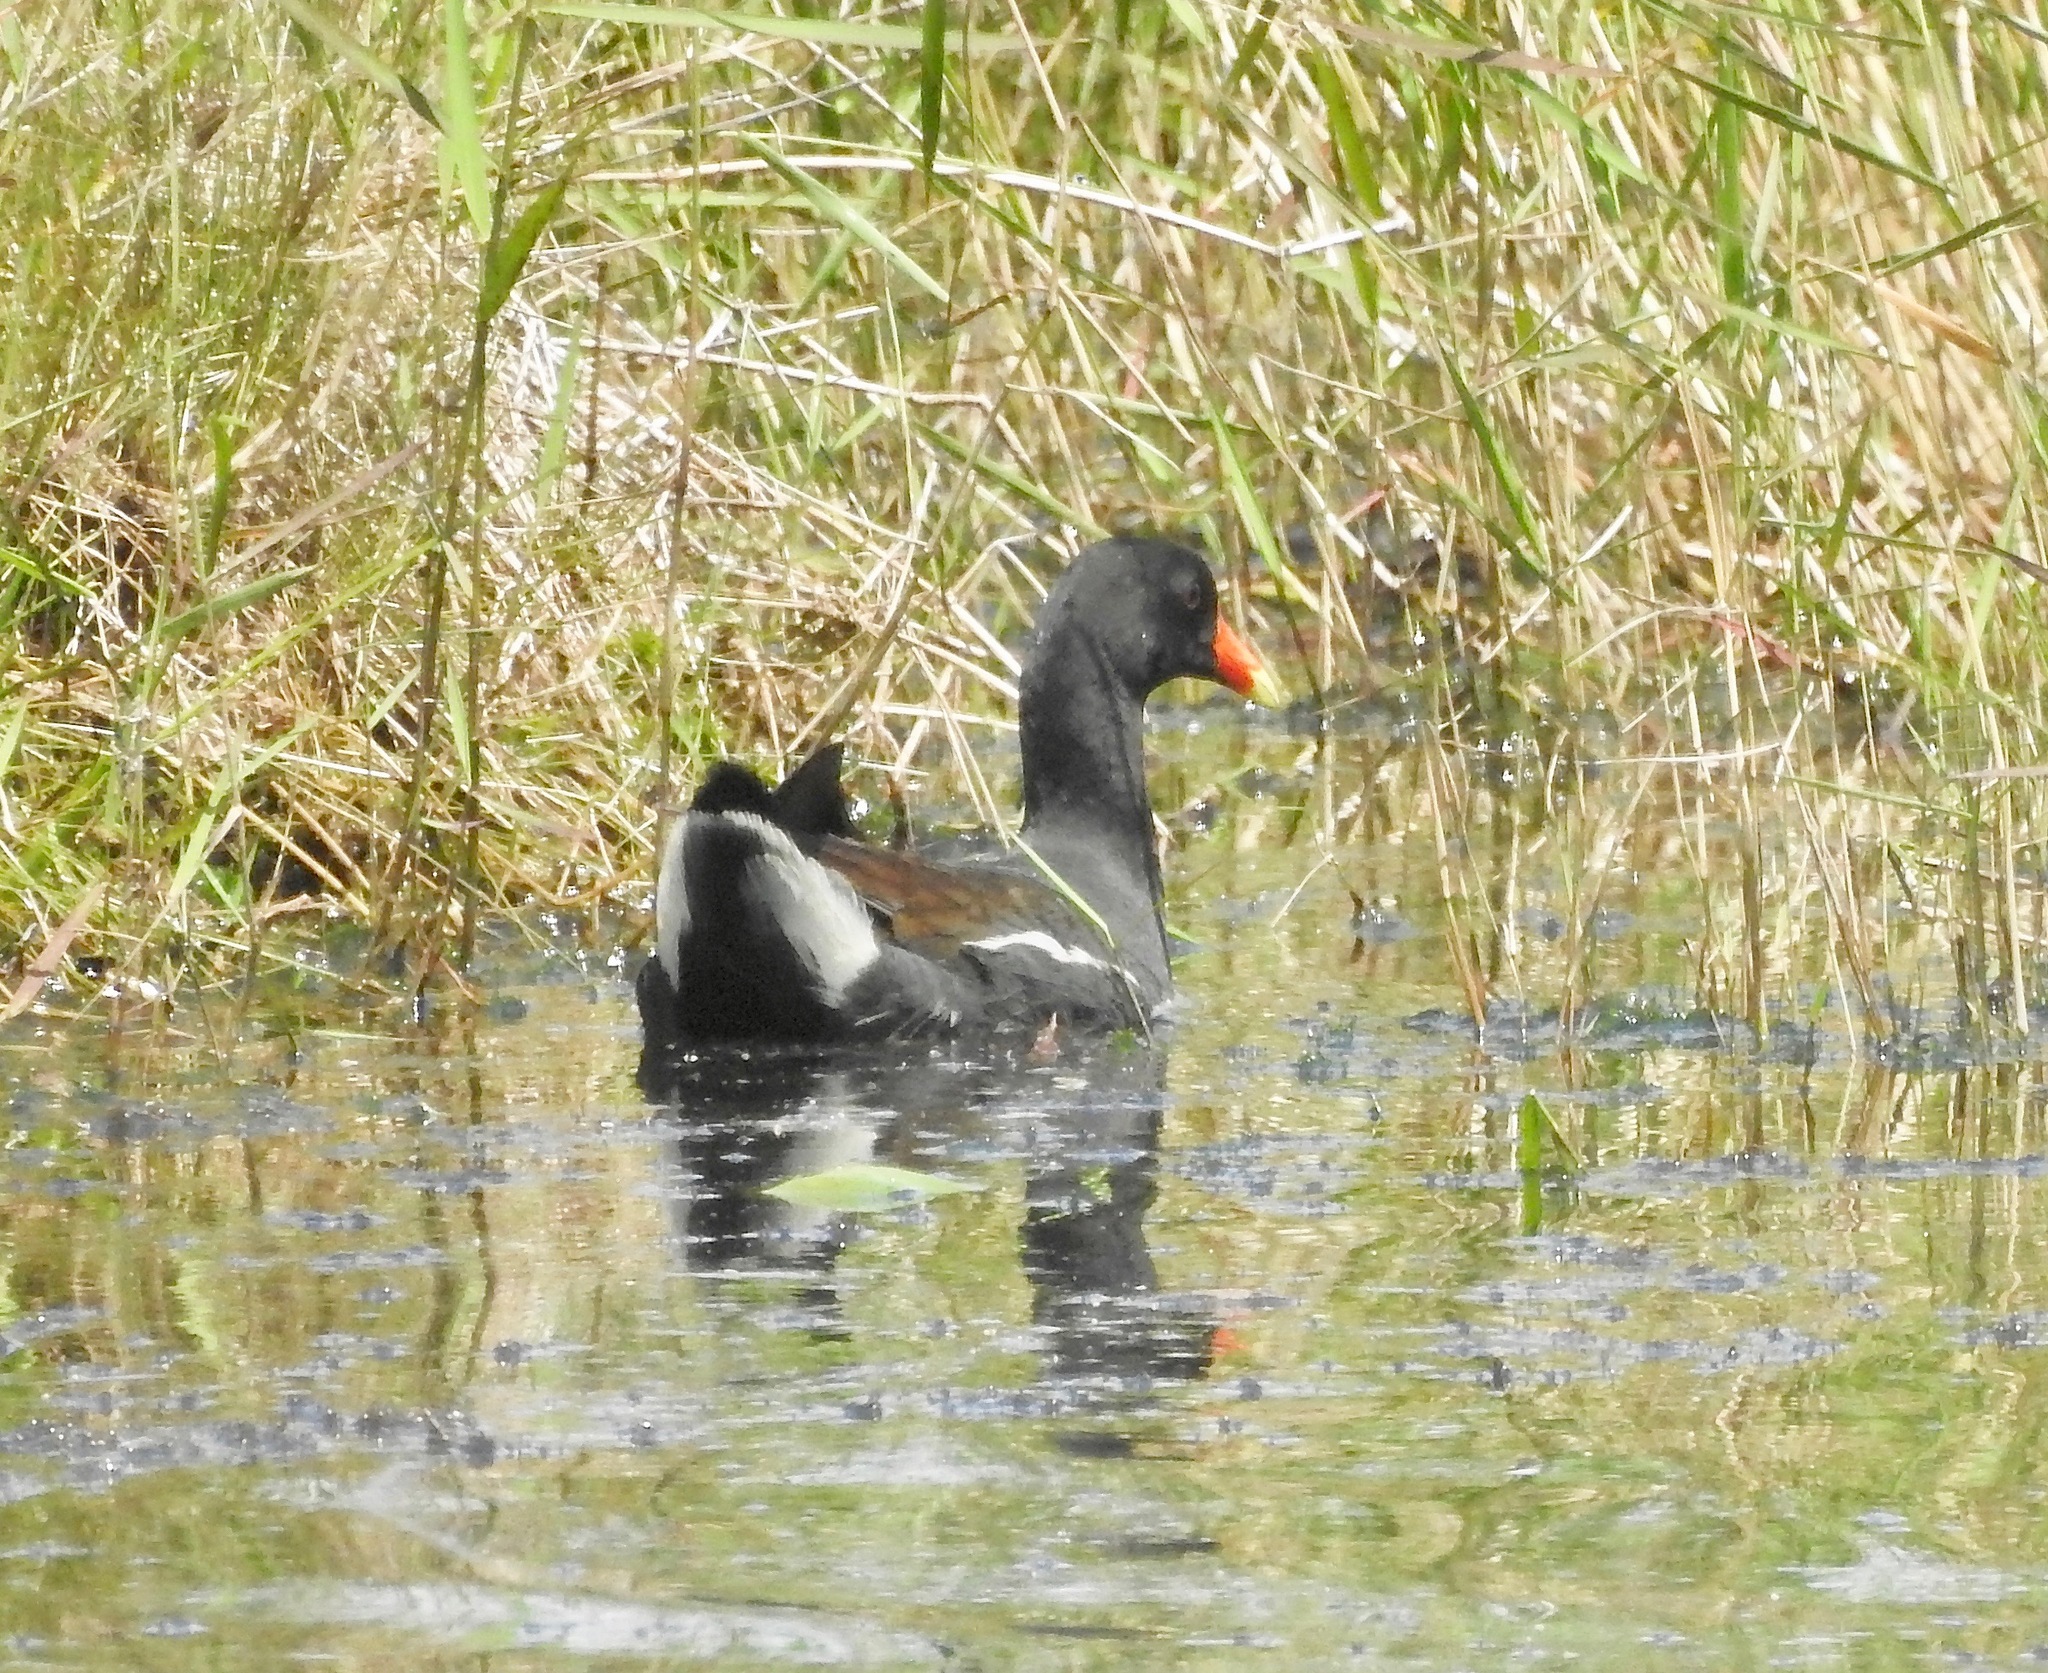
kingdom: Animalia
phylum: Chordata
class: Aves
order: Gruiformes
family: Rallidae
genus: Gallinula
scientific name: Gallinula chloropus
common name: Common moorhen
